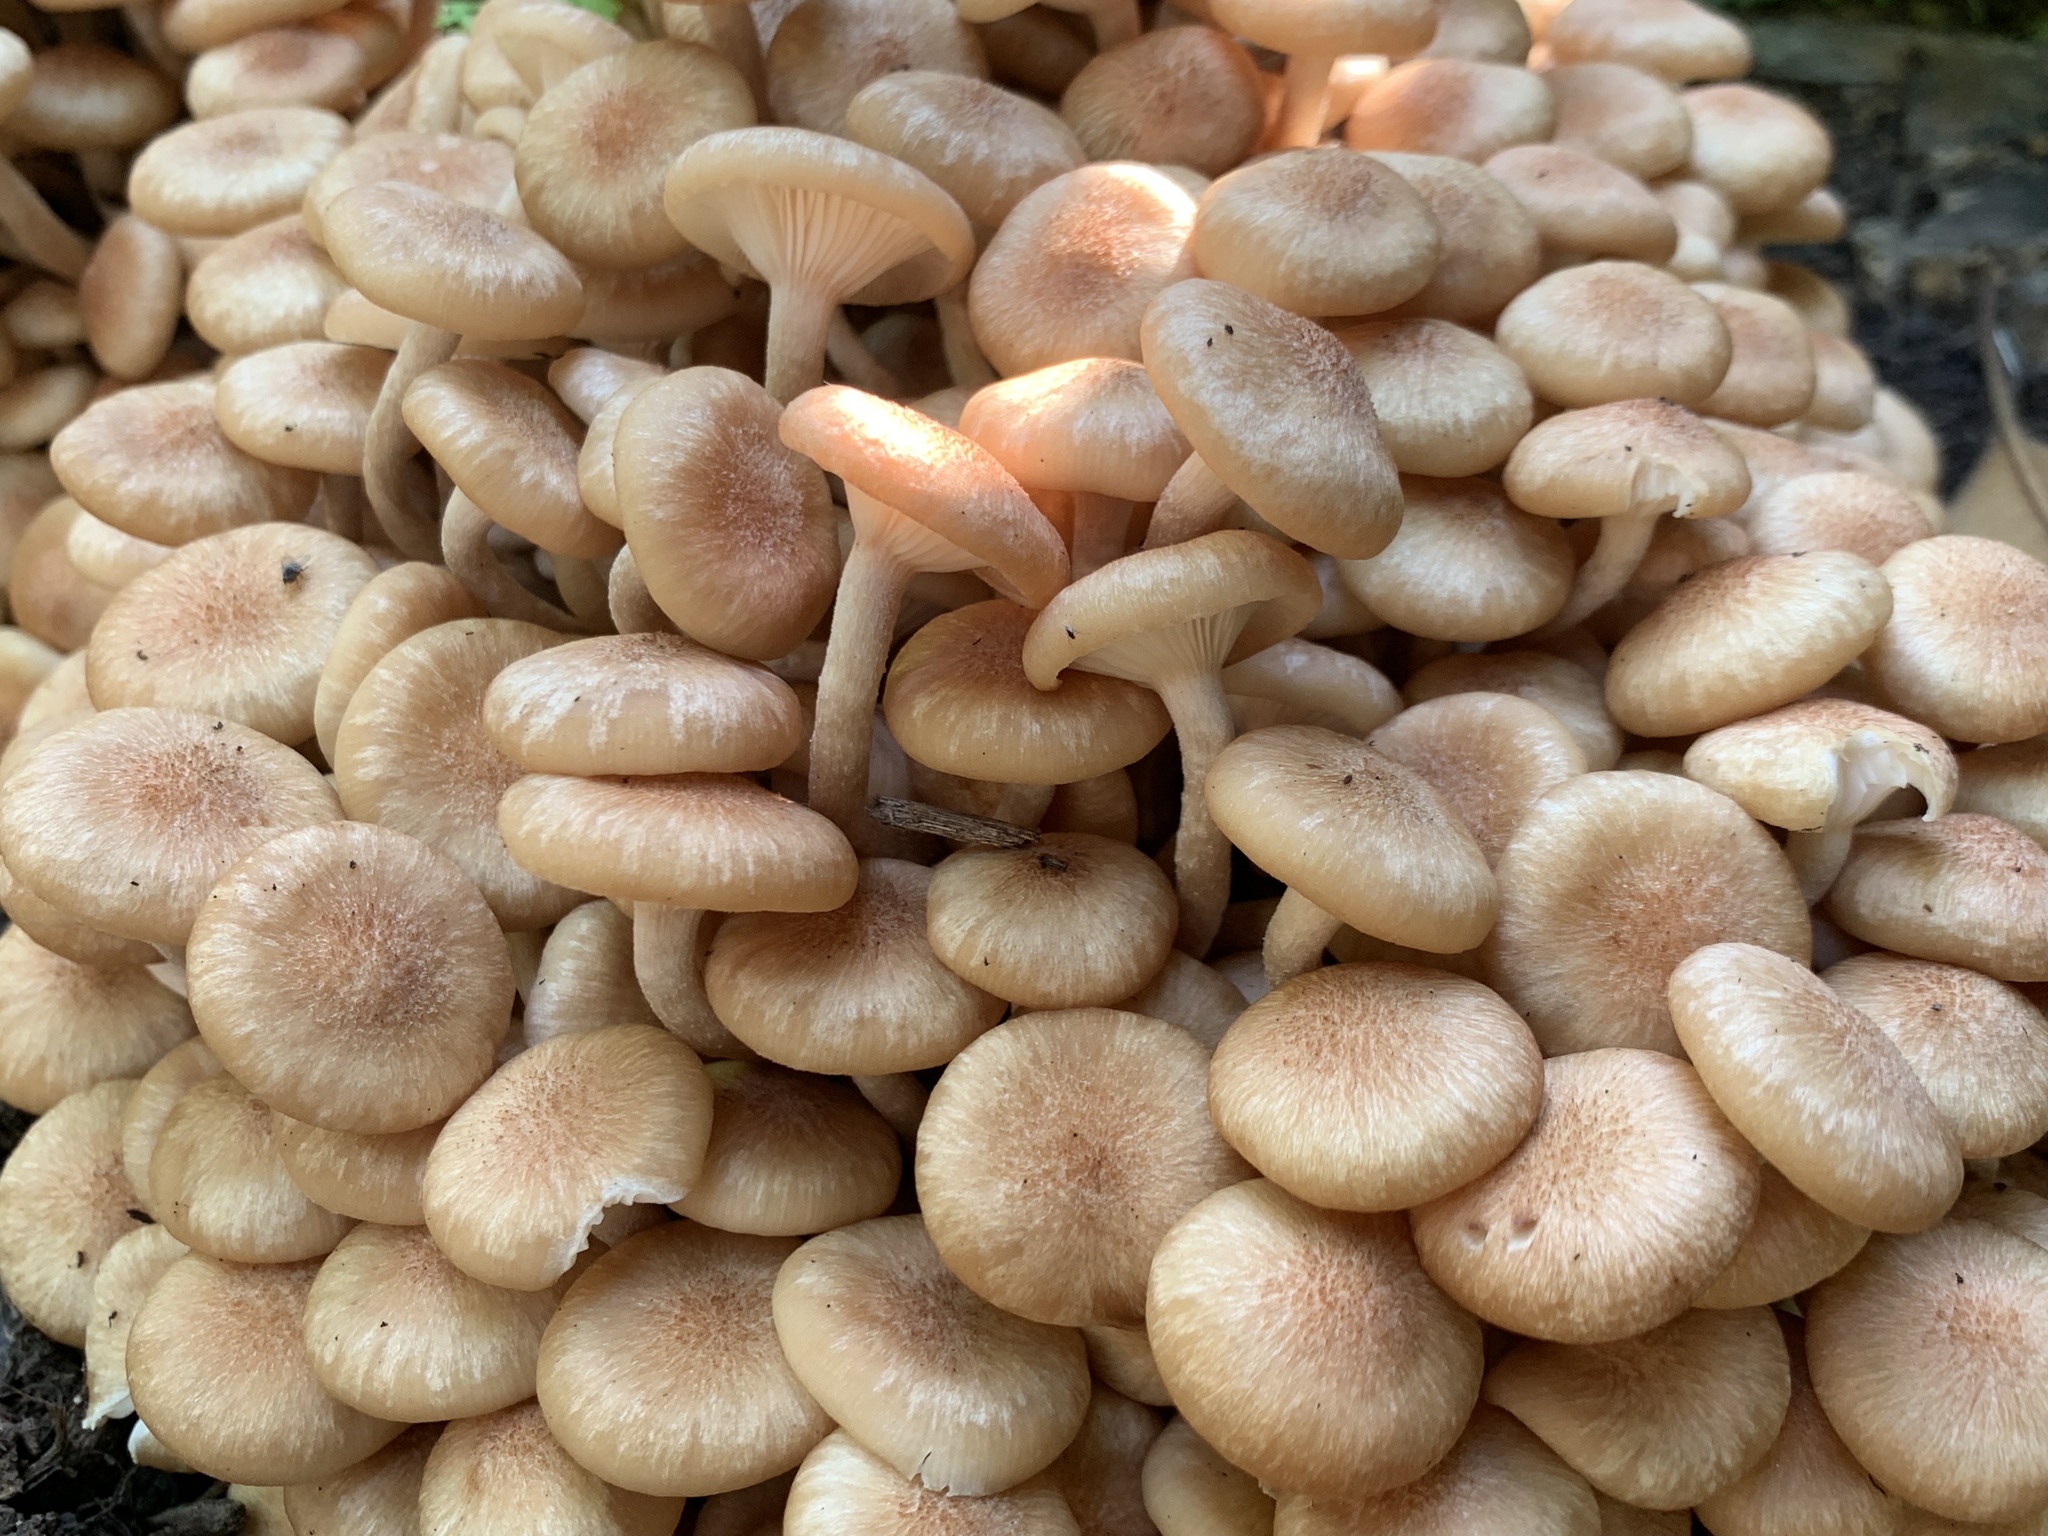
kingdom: Fungi
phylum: Basidiomycota
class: Agaricomycetes
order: Agaricales
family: Physalacriaceae
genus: Desarmillaria
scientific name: Desarmillaria caespitosa
